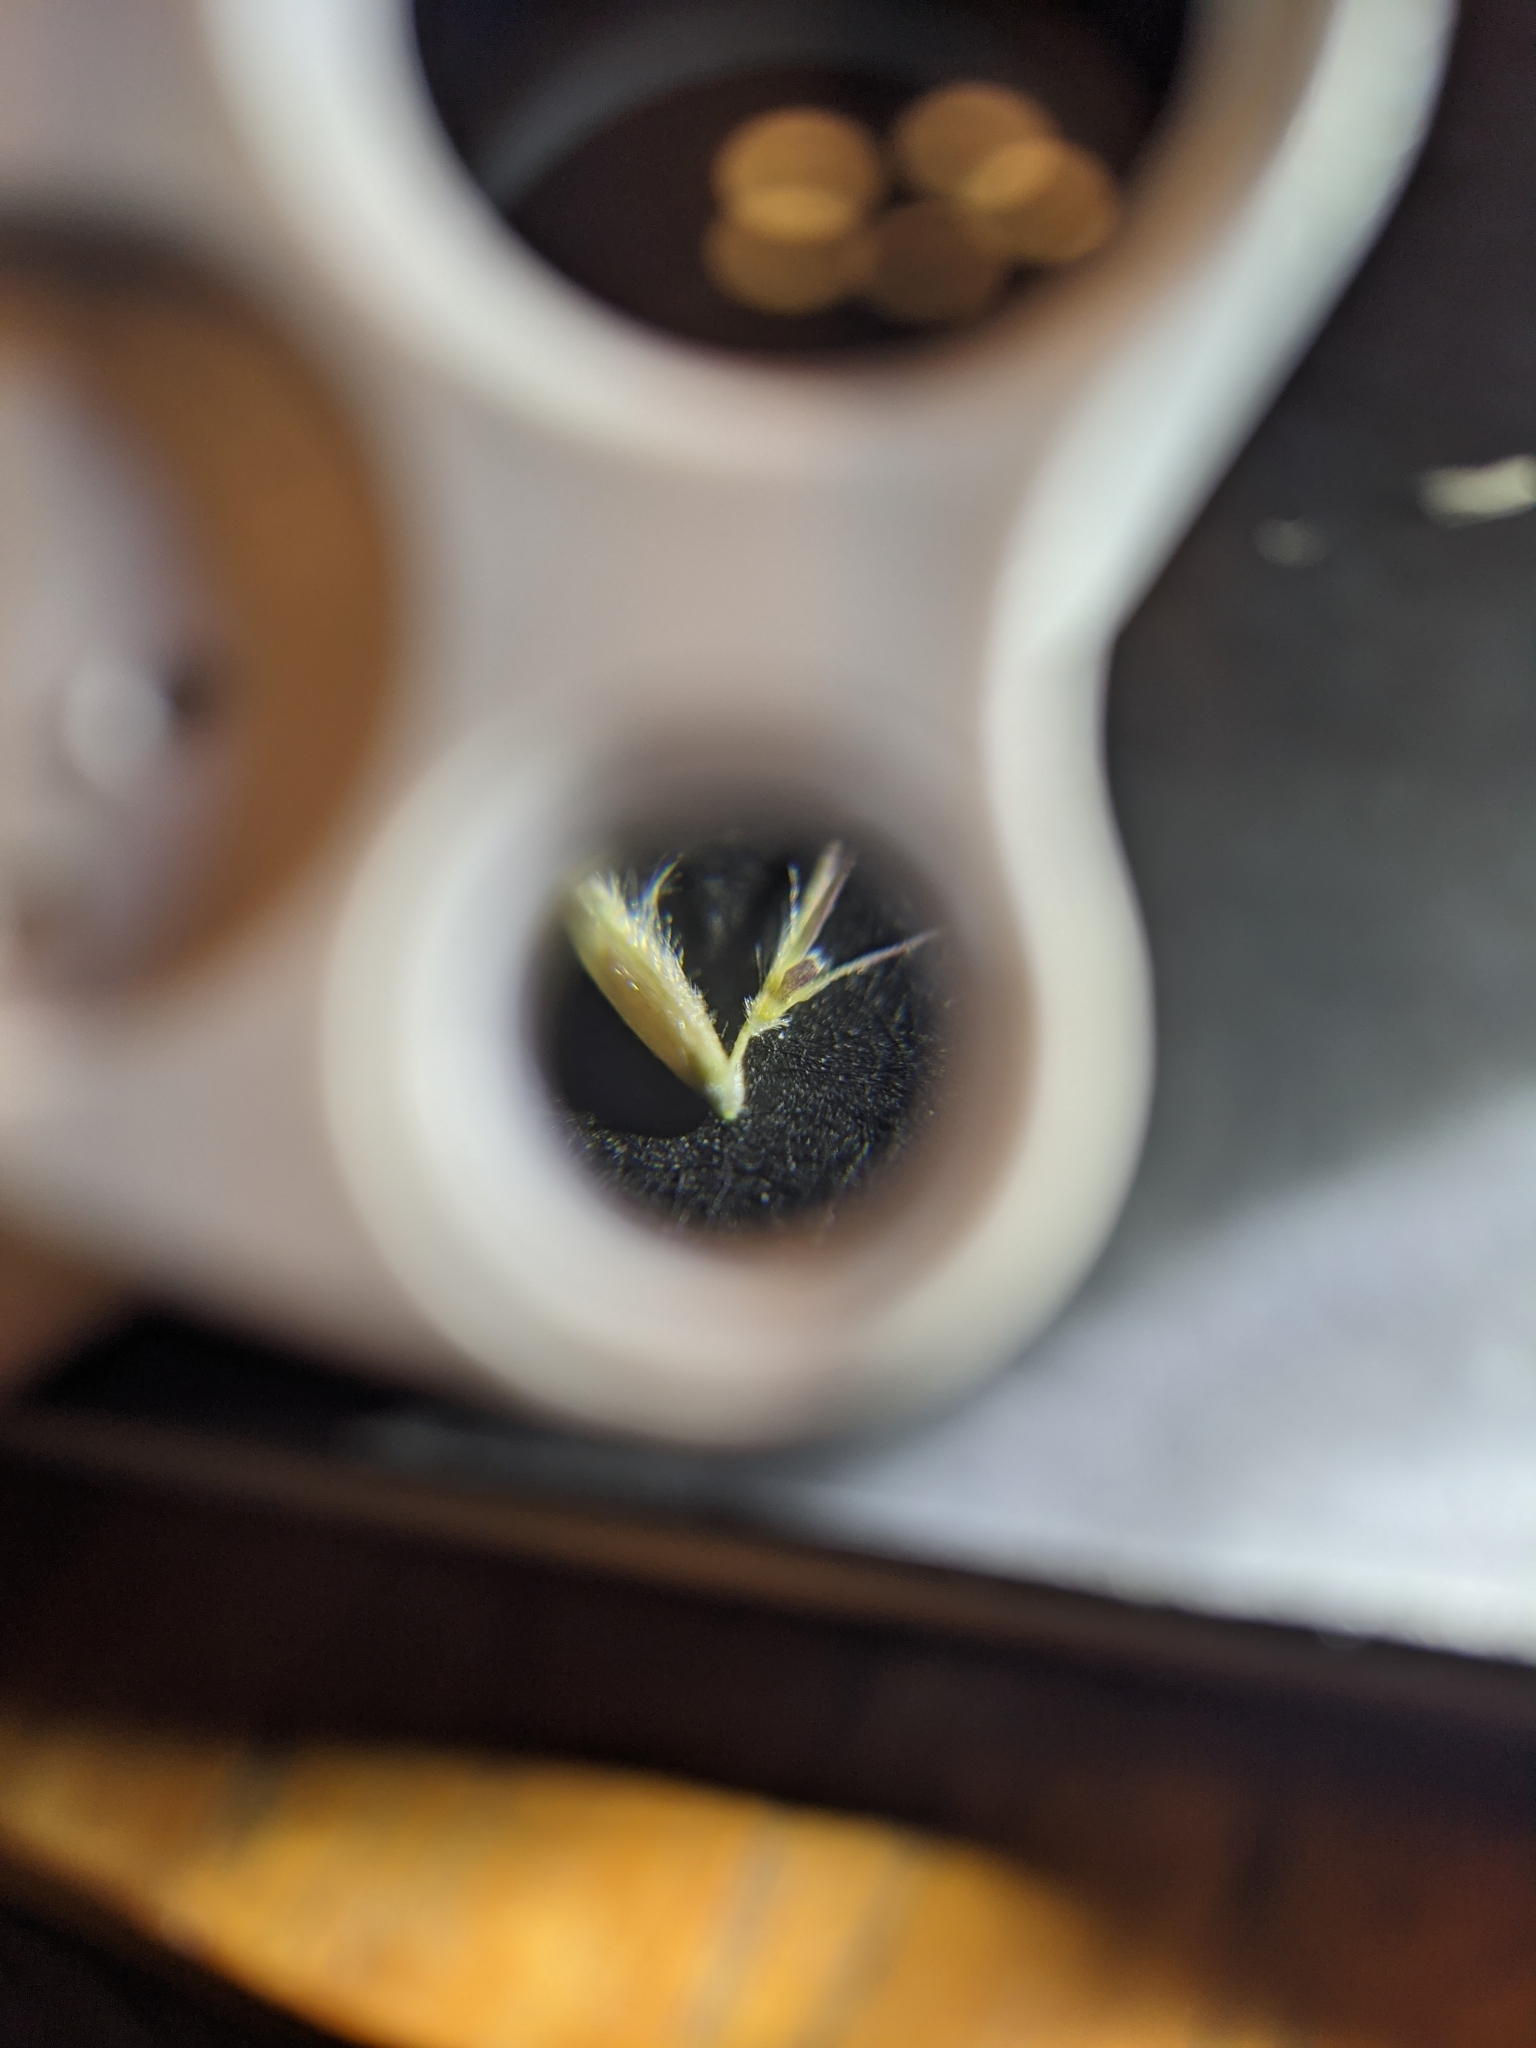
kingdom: Plantae
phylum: Tracheophyta
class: Liliopsida
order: Poales
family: Poaceae
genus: Bouteloua
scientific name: Bouteloua pectinata
